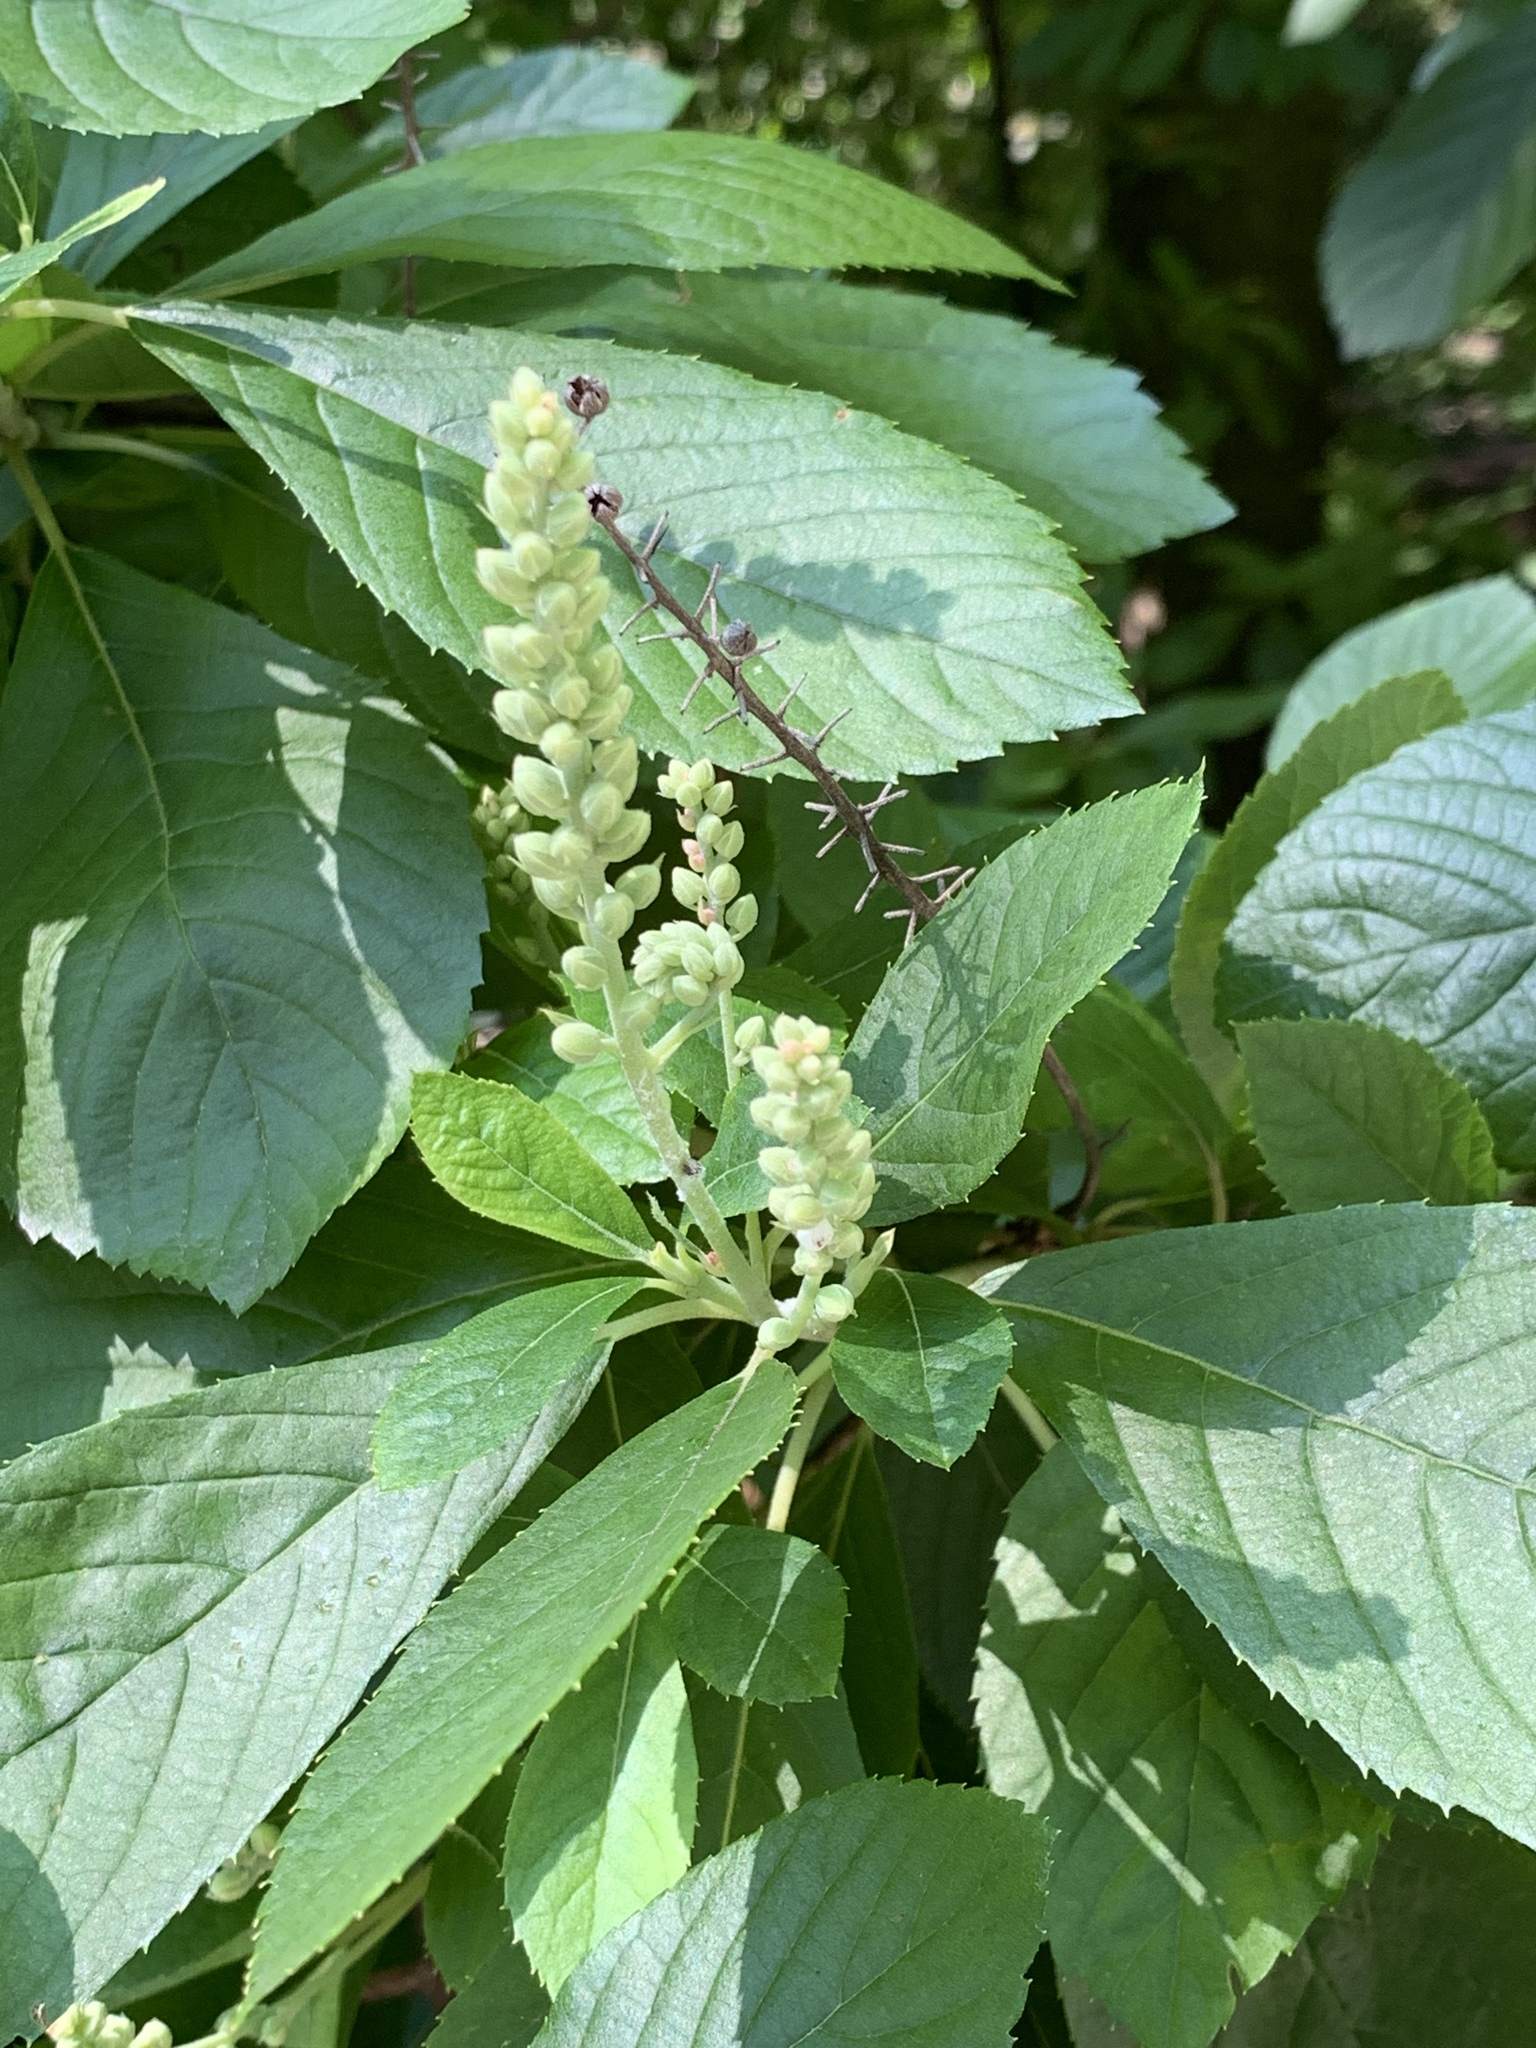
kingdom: Plantae
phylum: Tracheophyta
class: Magnoliopsida
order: Ericales
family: Clethraceae
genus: Clethra
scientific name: Clethra alnifolia
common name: Sweet pepperbush
